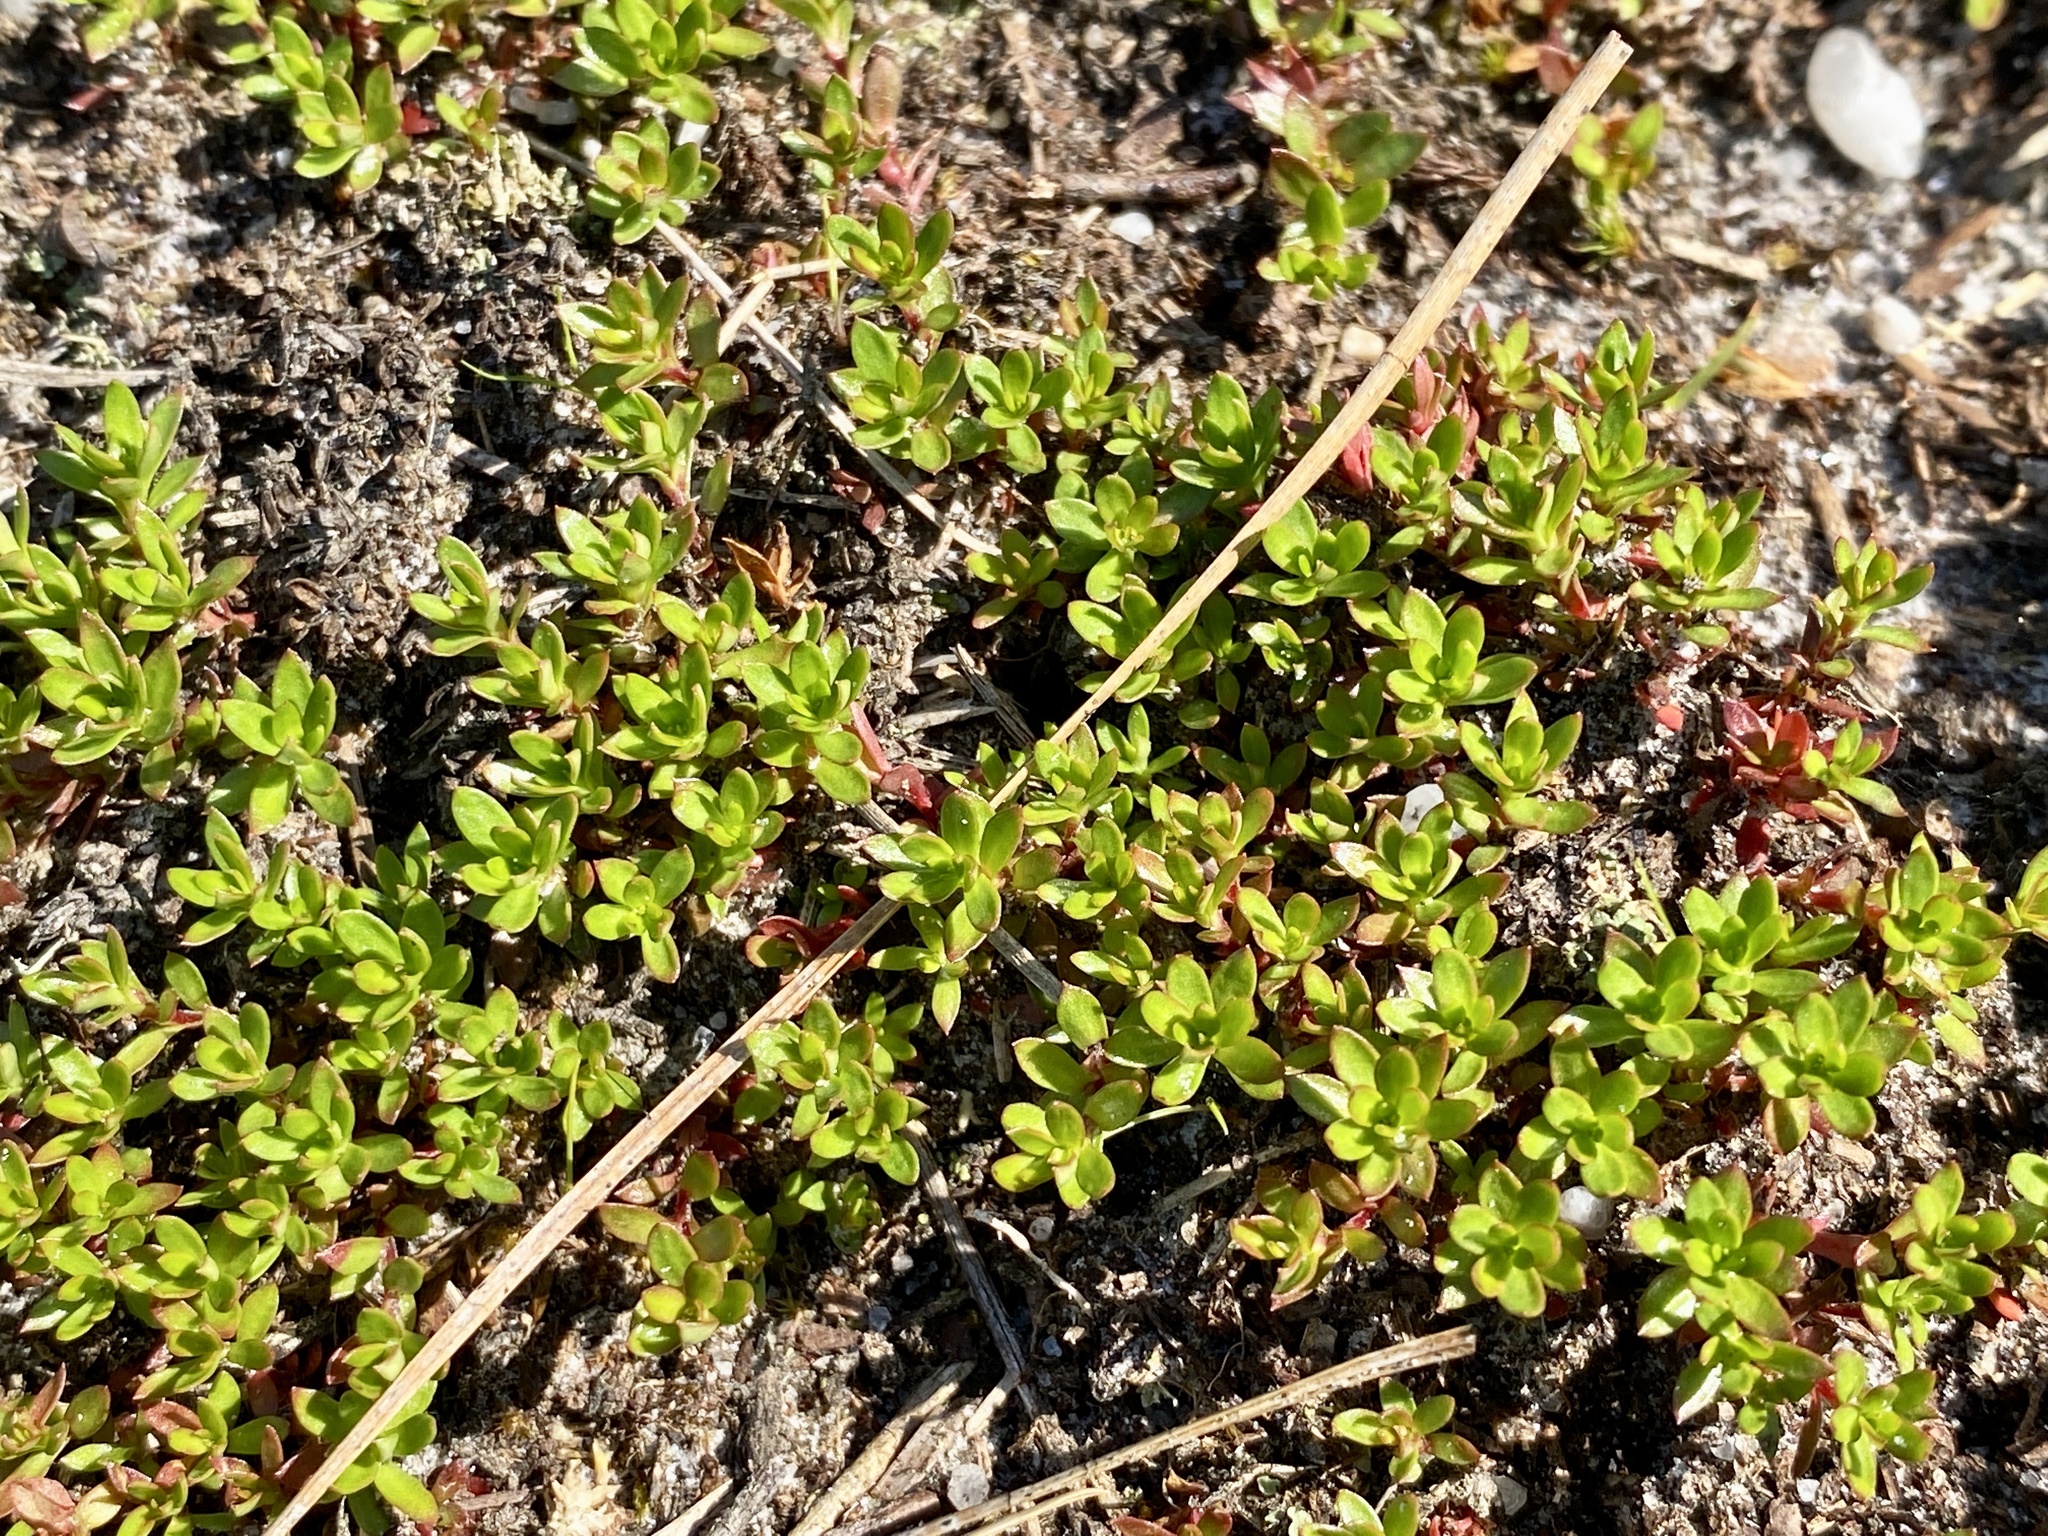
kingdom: Plantae
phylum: Tracheophyta
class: Magnoliopsida
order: Ericales
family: Diapensiaceae
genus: Pyxidanthera
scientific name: Pyxidanthera barbulata
